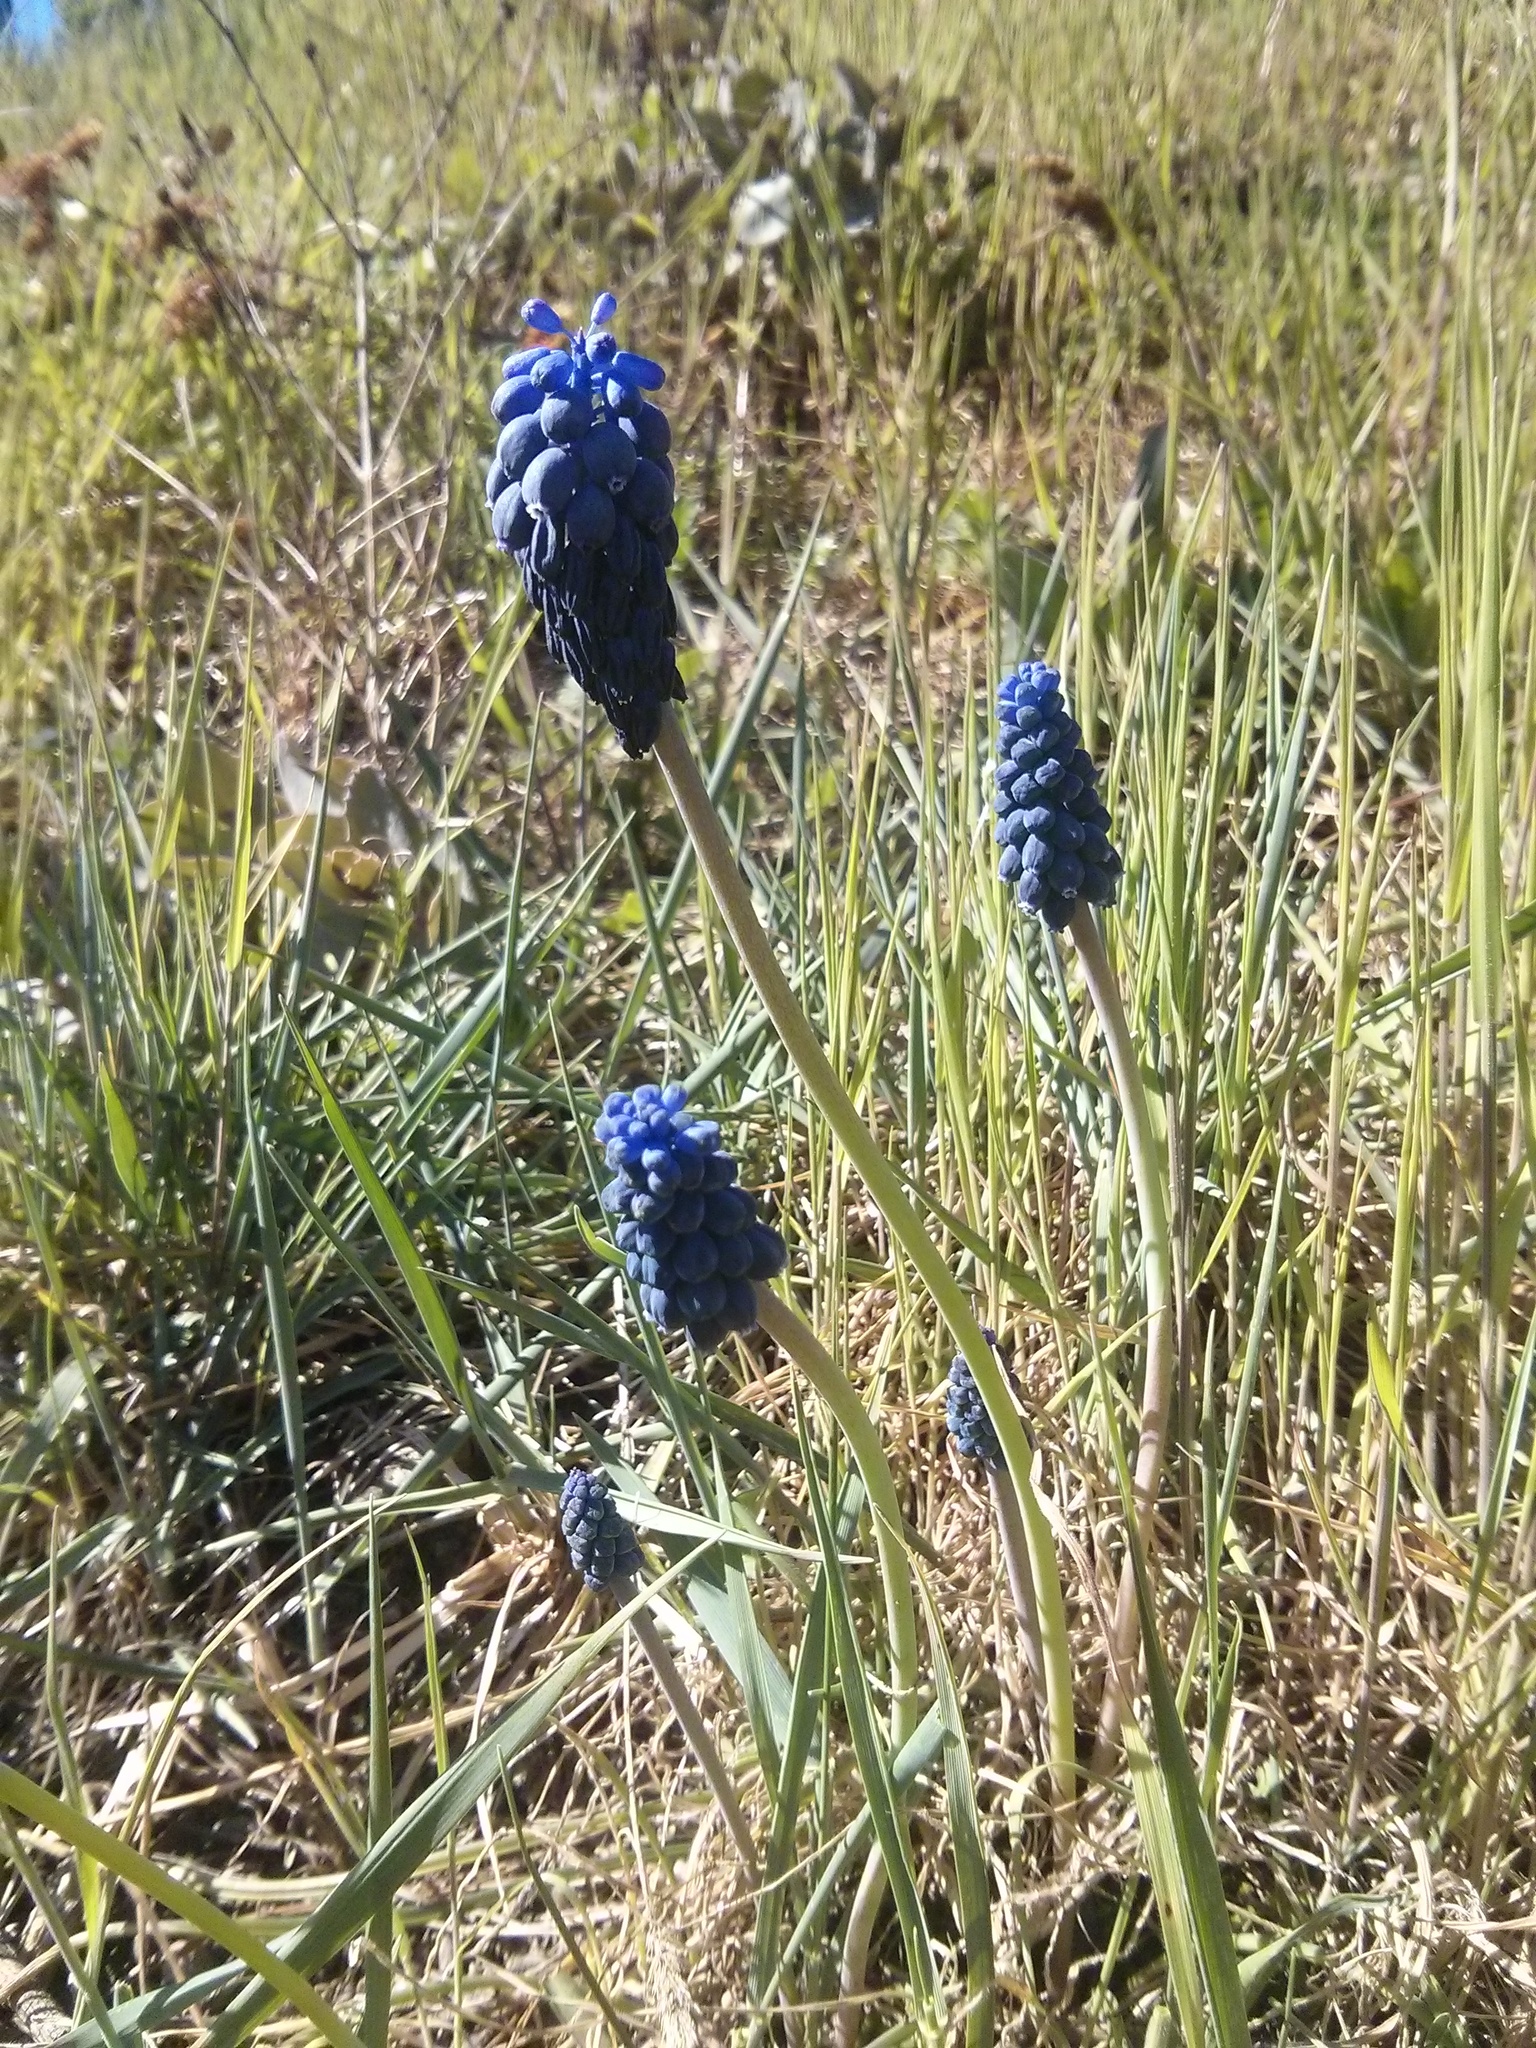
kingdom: Plantae
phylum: Tracheophyta
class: Liliopsida
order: Asparagales
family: Asparagaceae
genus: Muscari
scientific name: Muscari neglectum
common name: Grape-hyacinth
